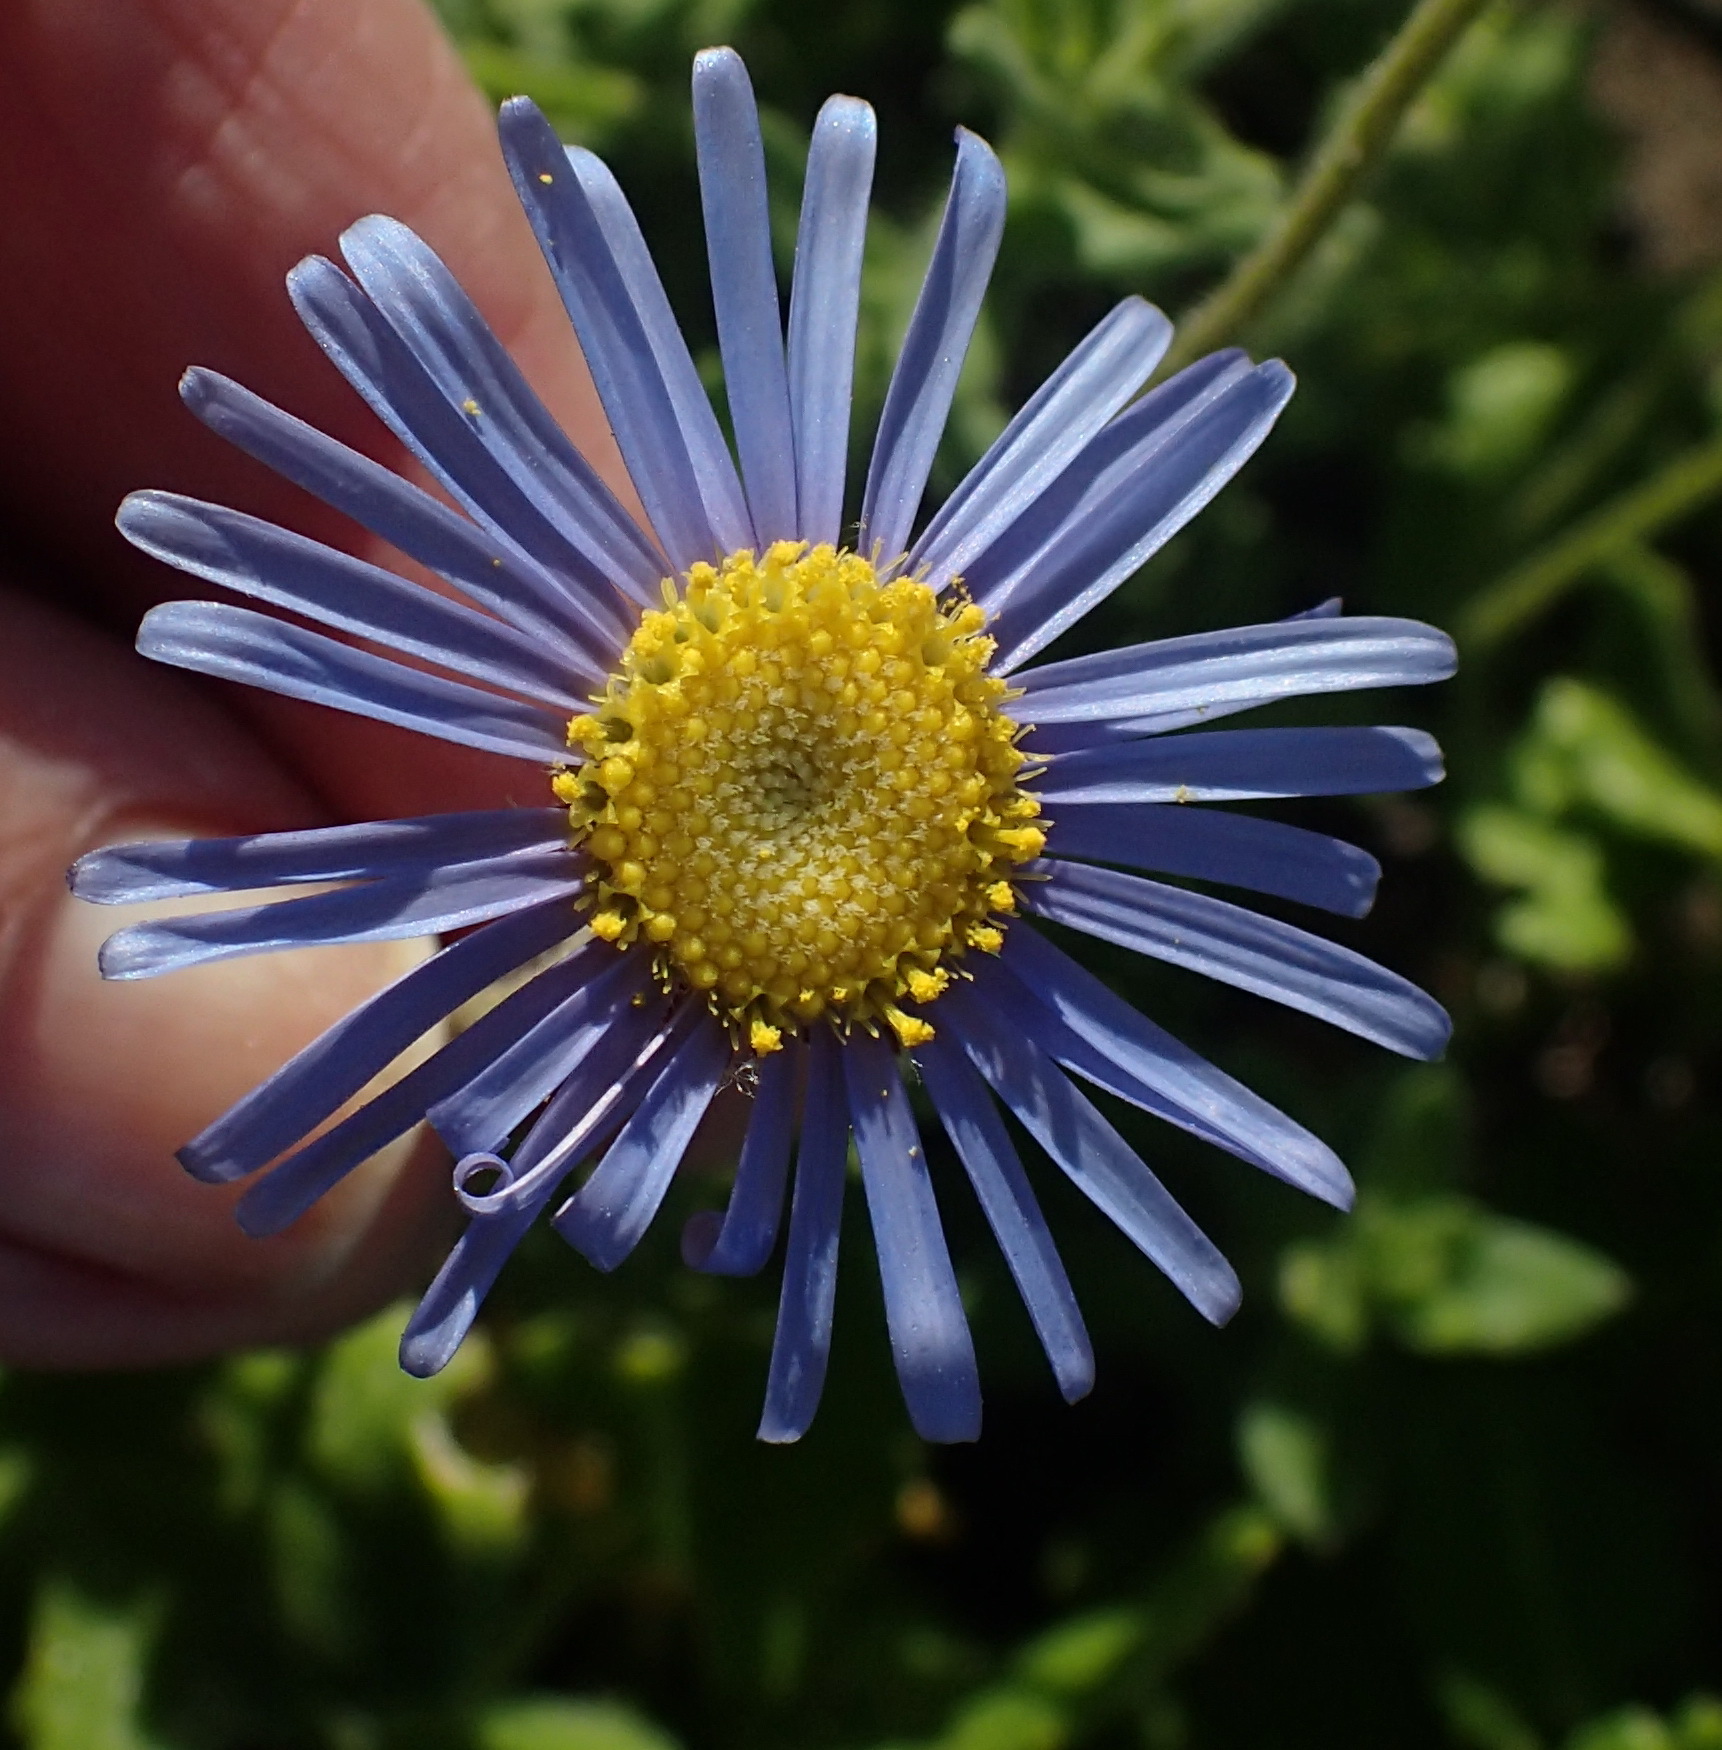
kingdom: Plantae
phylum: Tracheophyta
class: Magnoliopsida
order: Asterales
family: Asteraceae
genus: Felicia
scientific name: Felicia amoena
